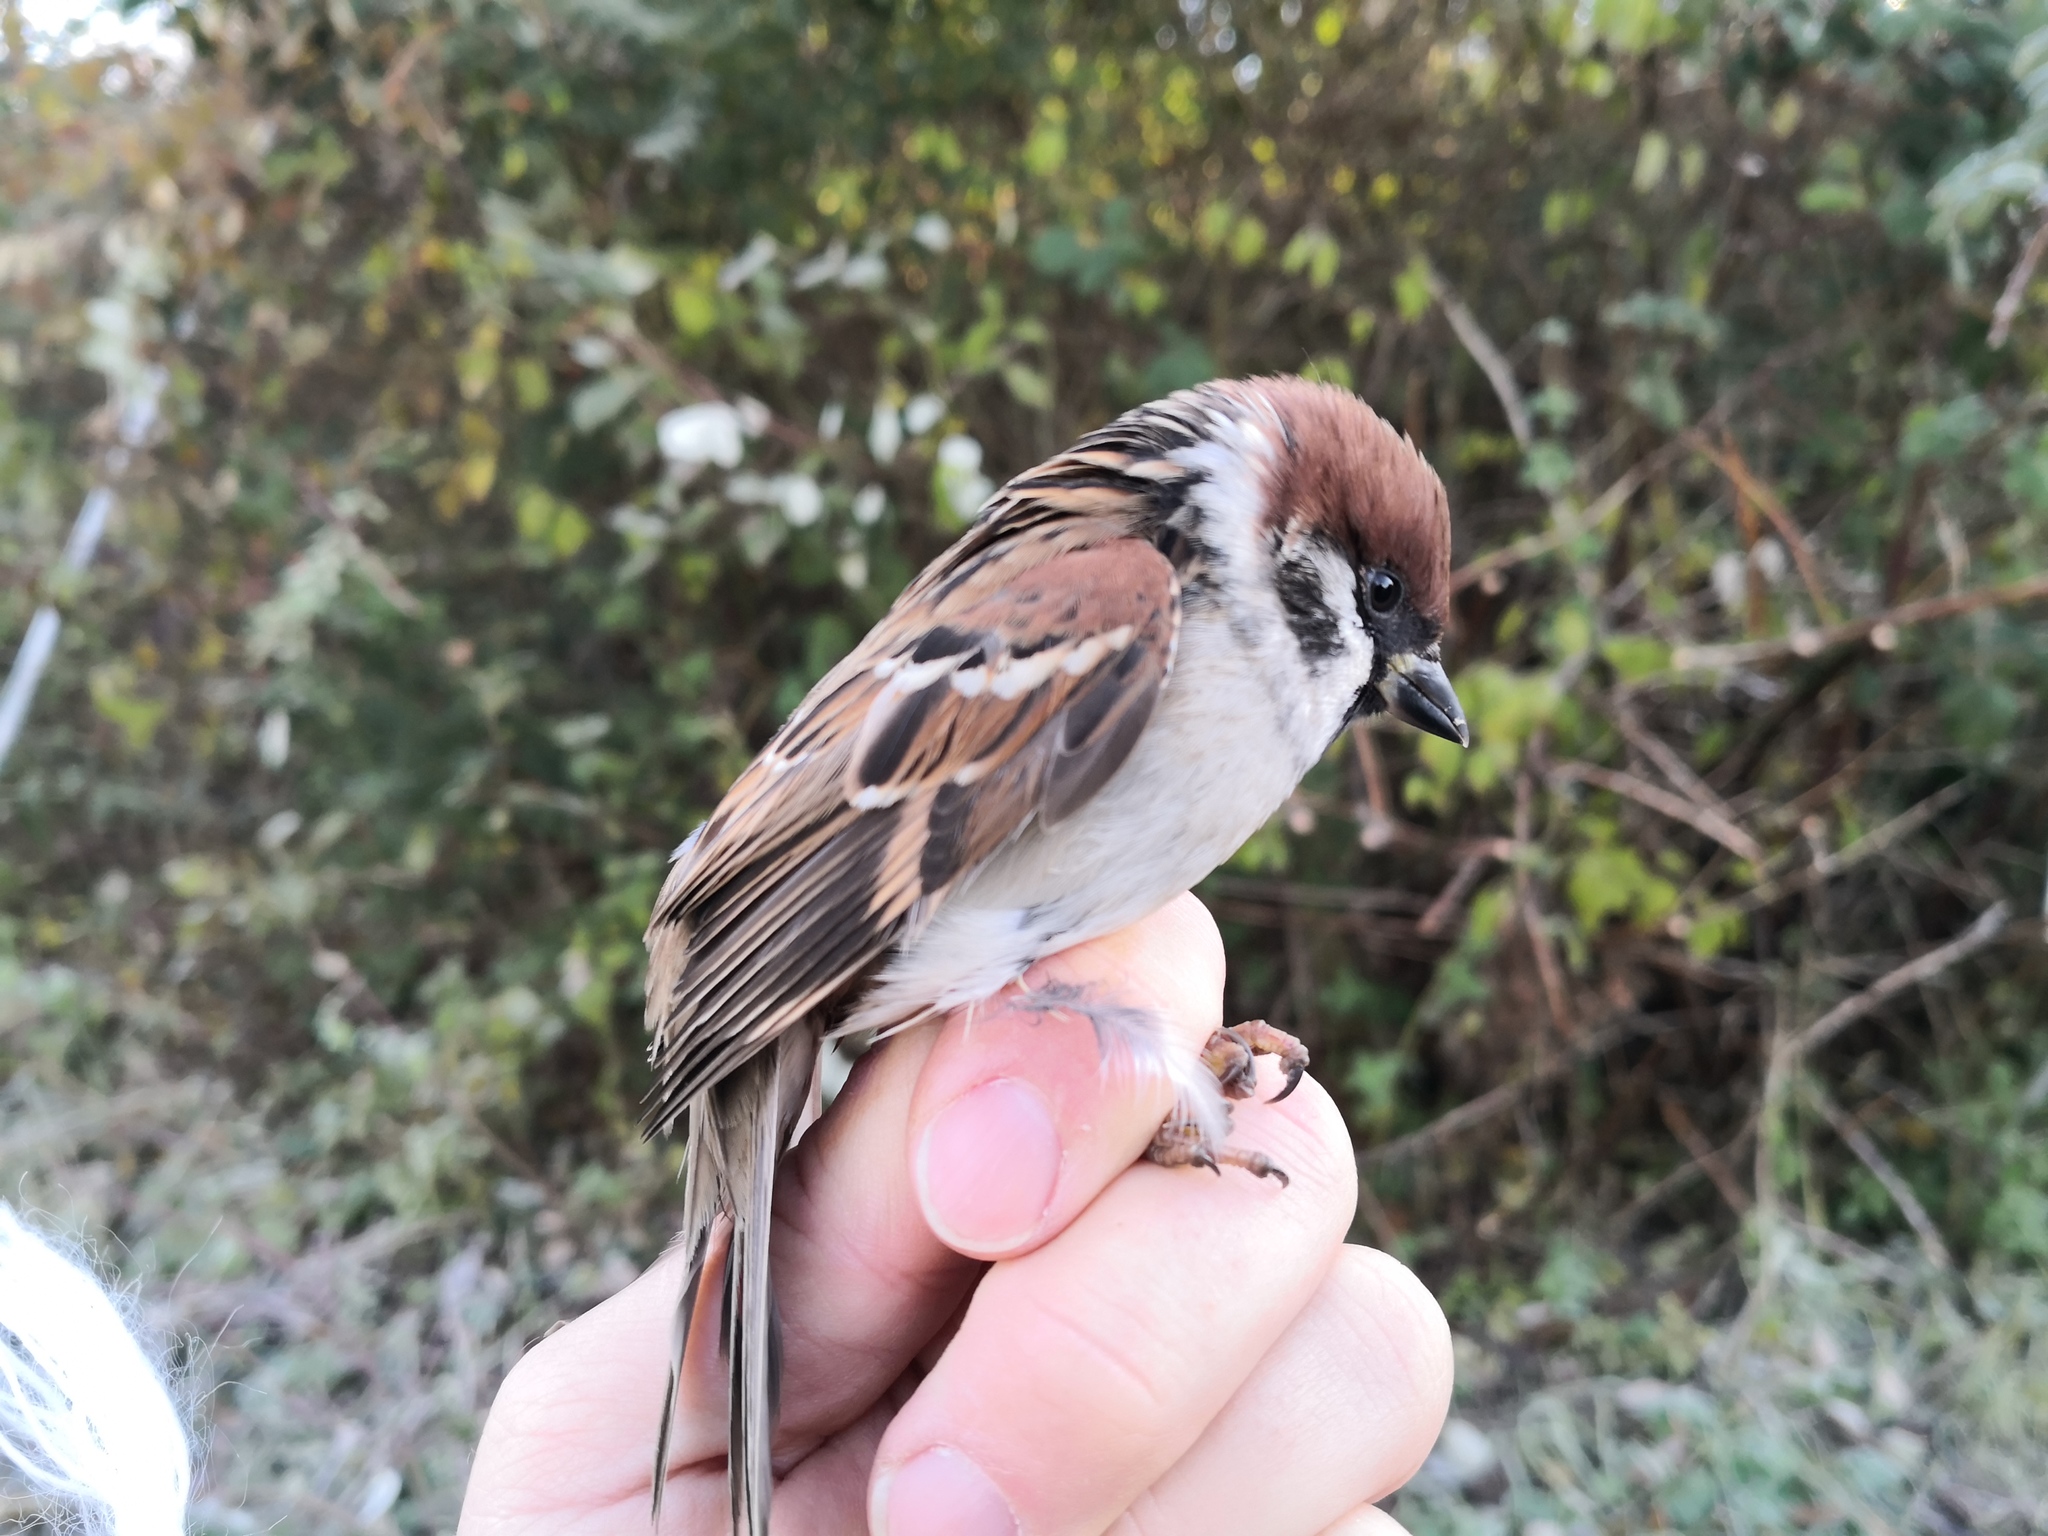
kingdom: Animalia
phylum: Chordata
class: Aves
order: Passeriformes
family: Passeridae
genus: Passer
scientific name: Passer montanus
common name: Eurasian tree sparrow
